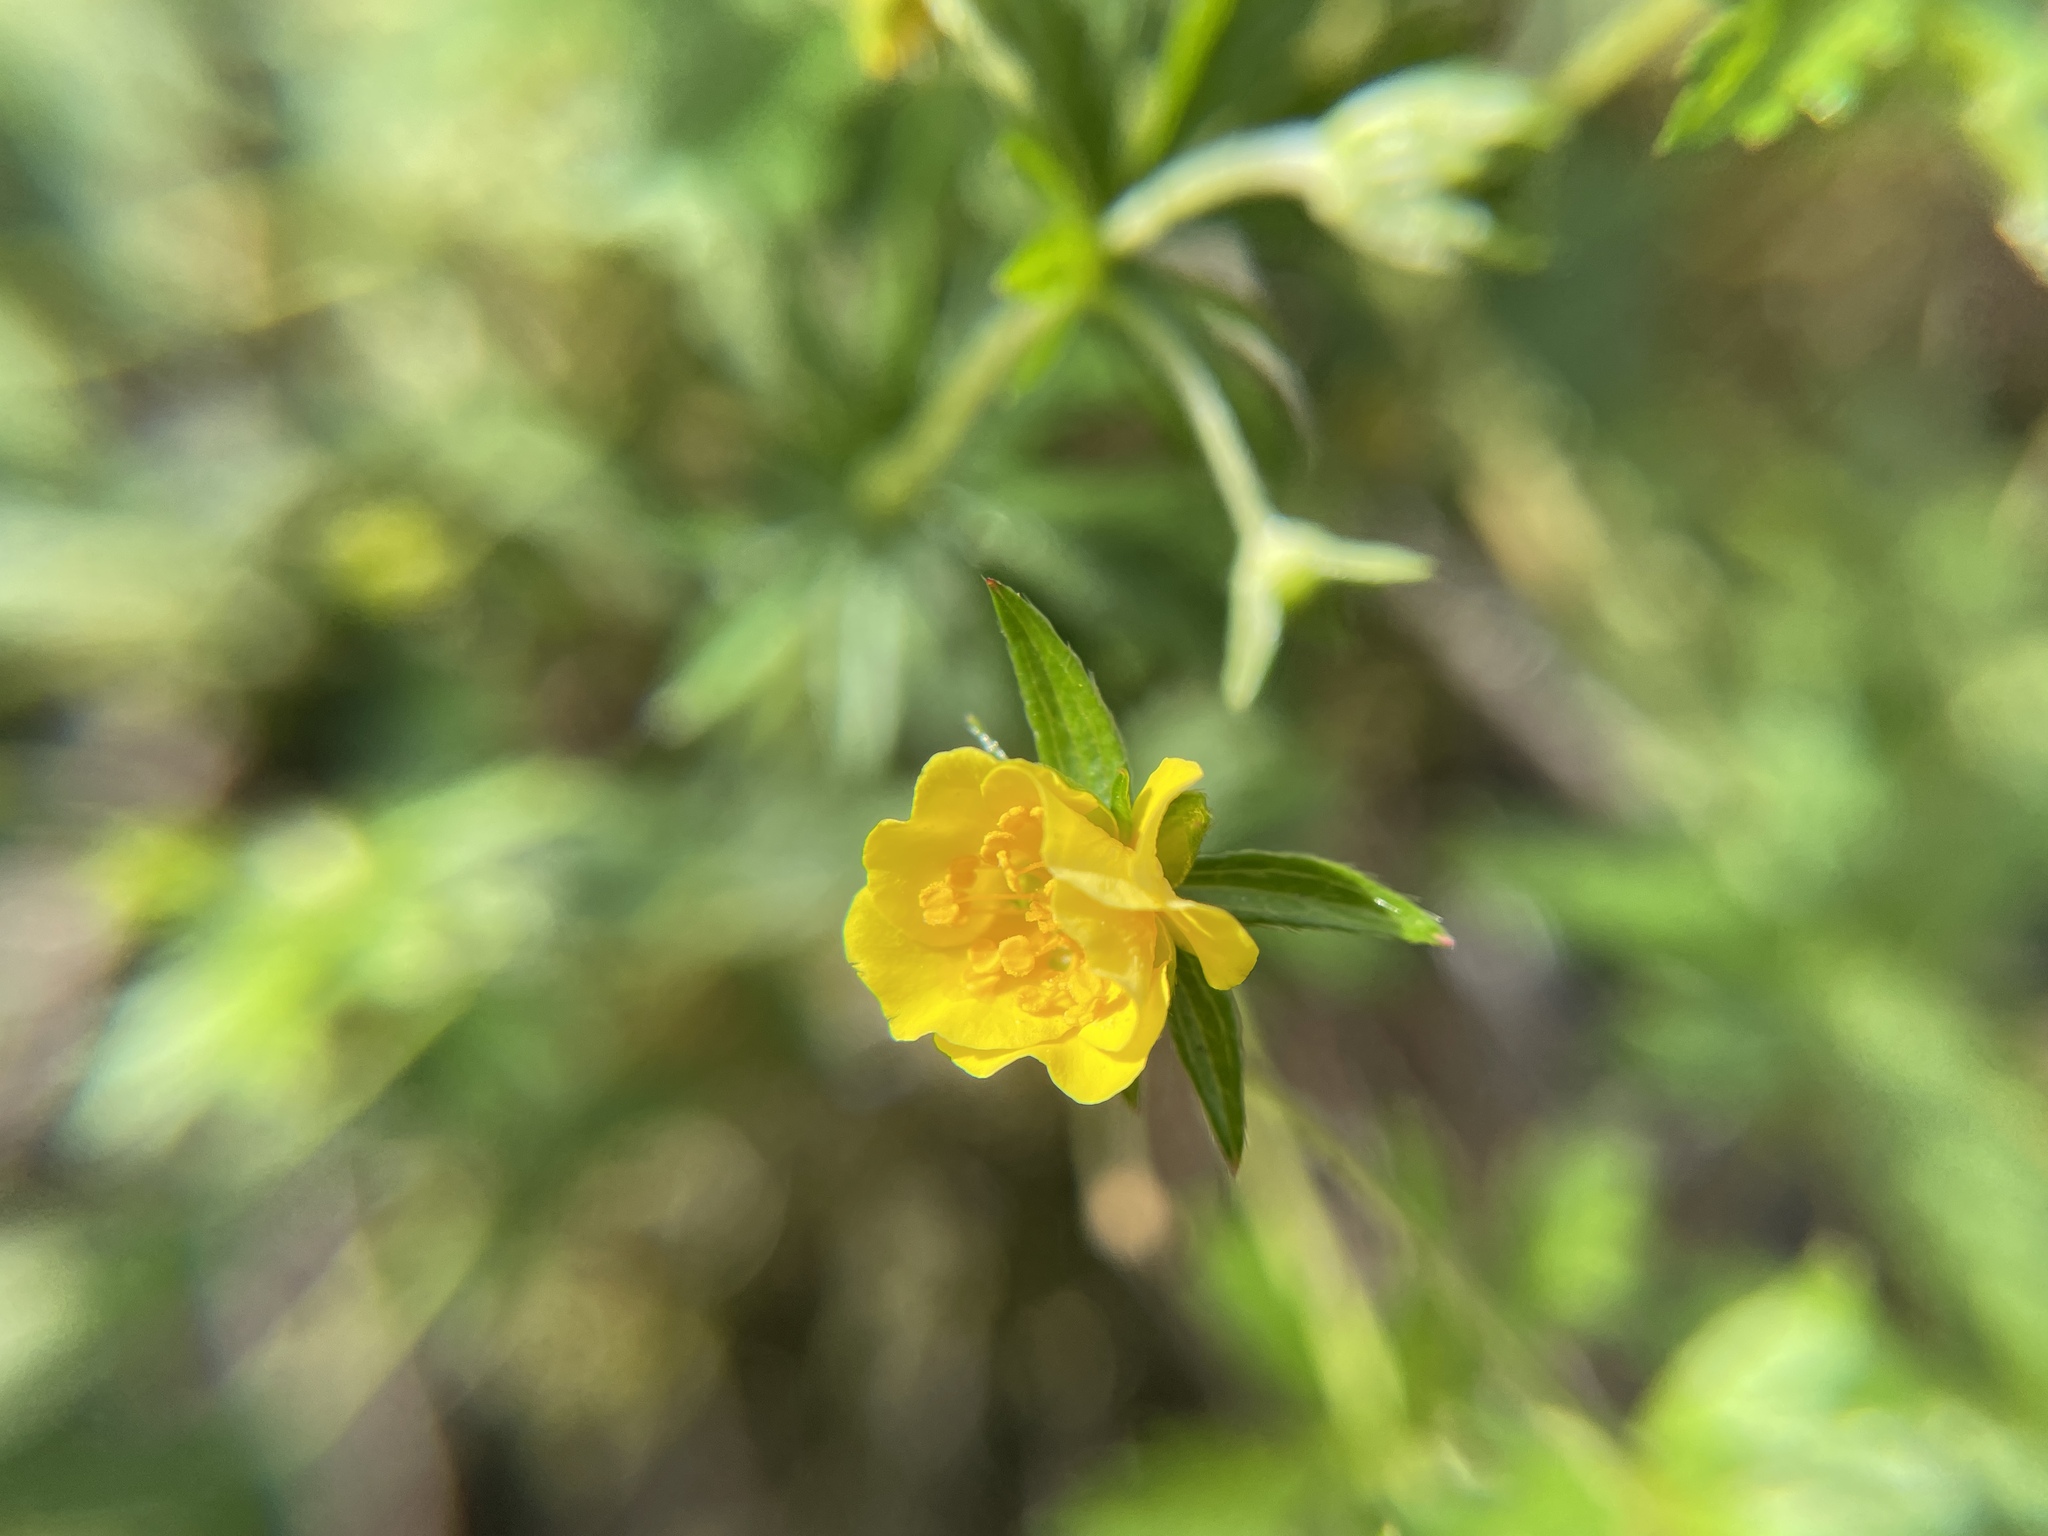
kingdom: Plantae
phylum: Tracheophyta
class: Magnoliopsida
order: Rosales
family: Rosaceae
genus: Potentilla
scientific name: Potentilla erecta
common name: Tormentil
